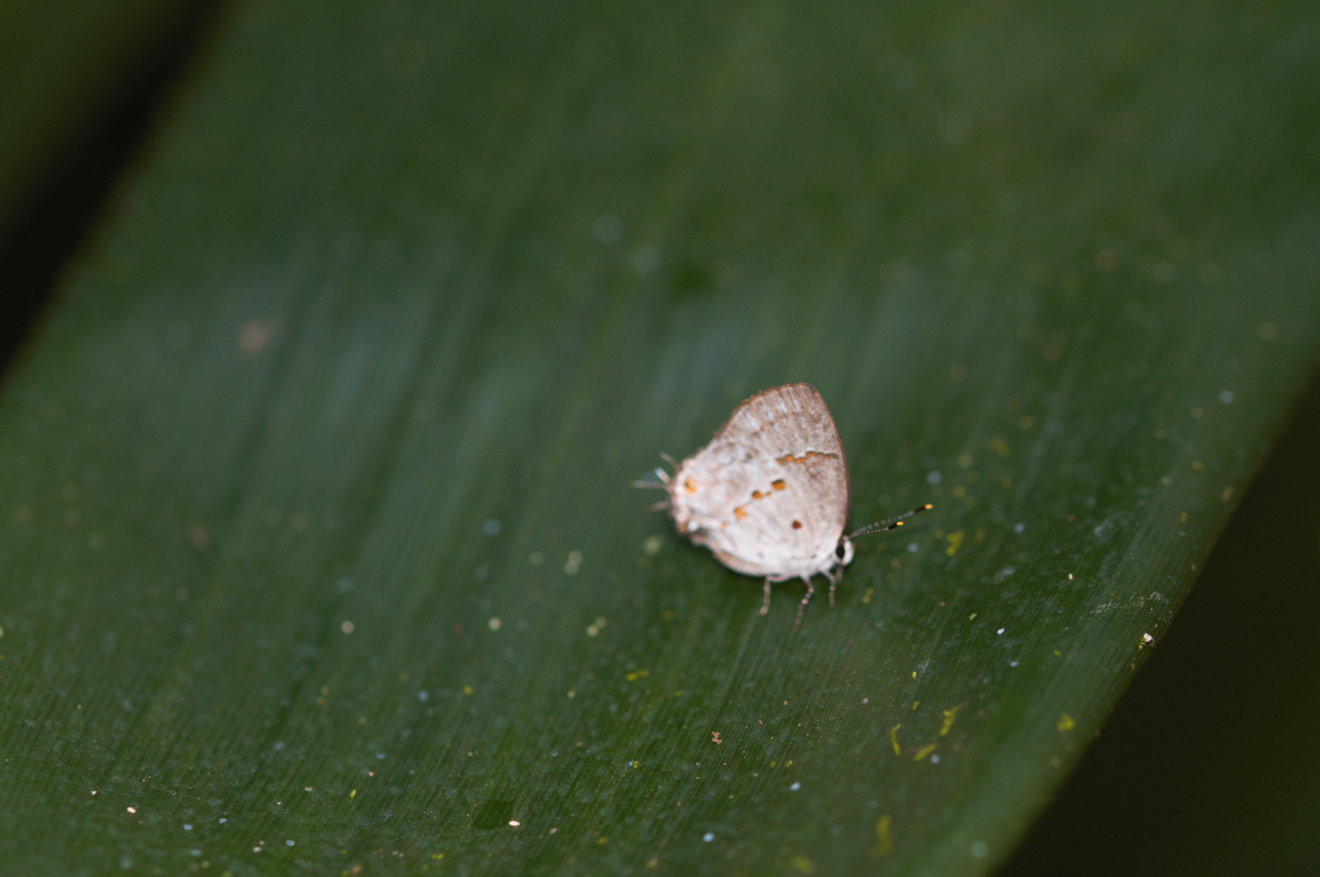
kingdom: Animalia
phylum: Arthropoda
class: Insecta
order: Lepidoptera
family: Lycaenidae
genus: Thecla
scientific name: Thecla celmus
